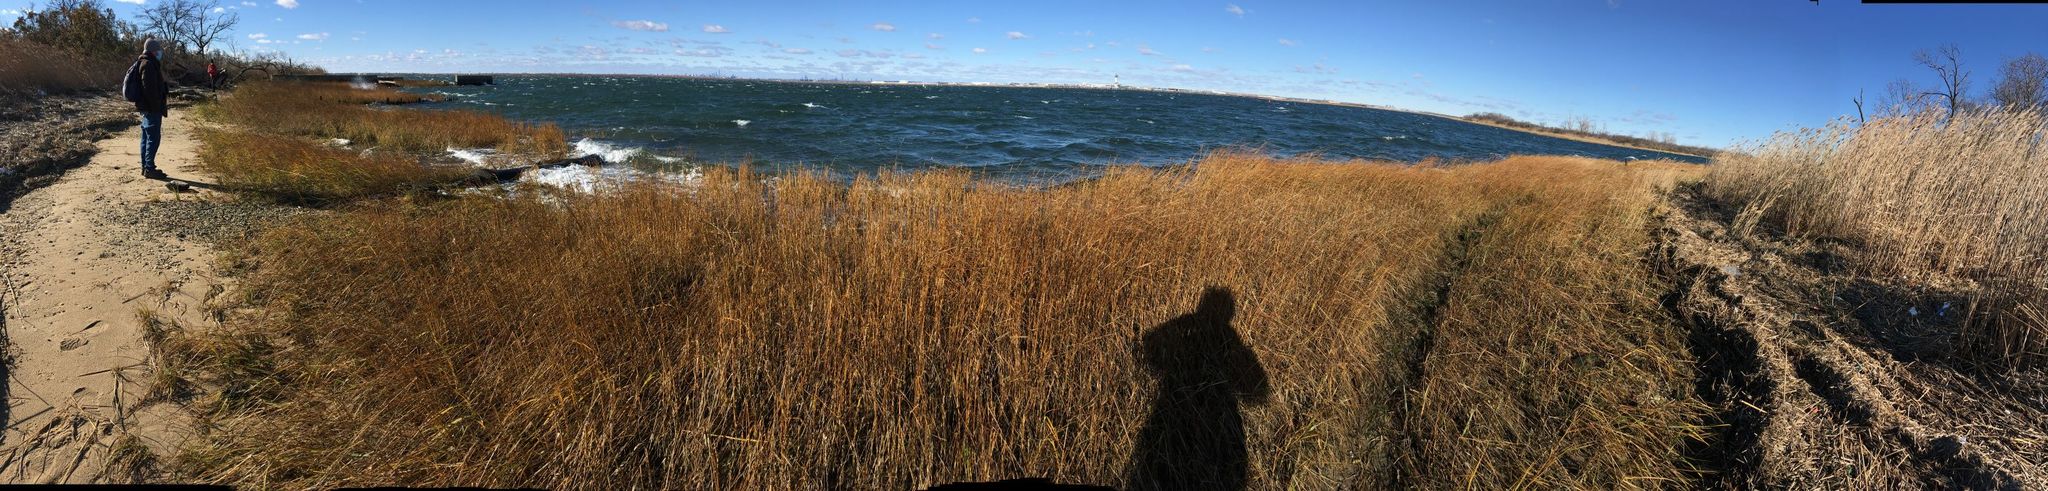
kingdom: Plantae
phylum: Tracheophyta
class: Liliopsida
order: Poales
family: Poaceae
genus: Sporobolus
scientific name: Sporobolus alterniflorus
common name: Atlantic cordgrass
